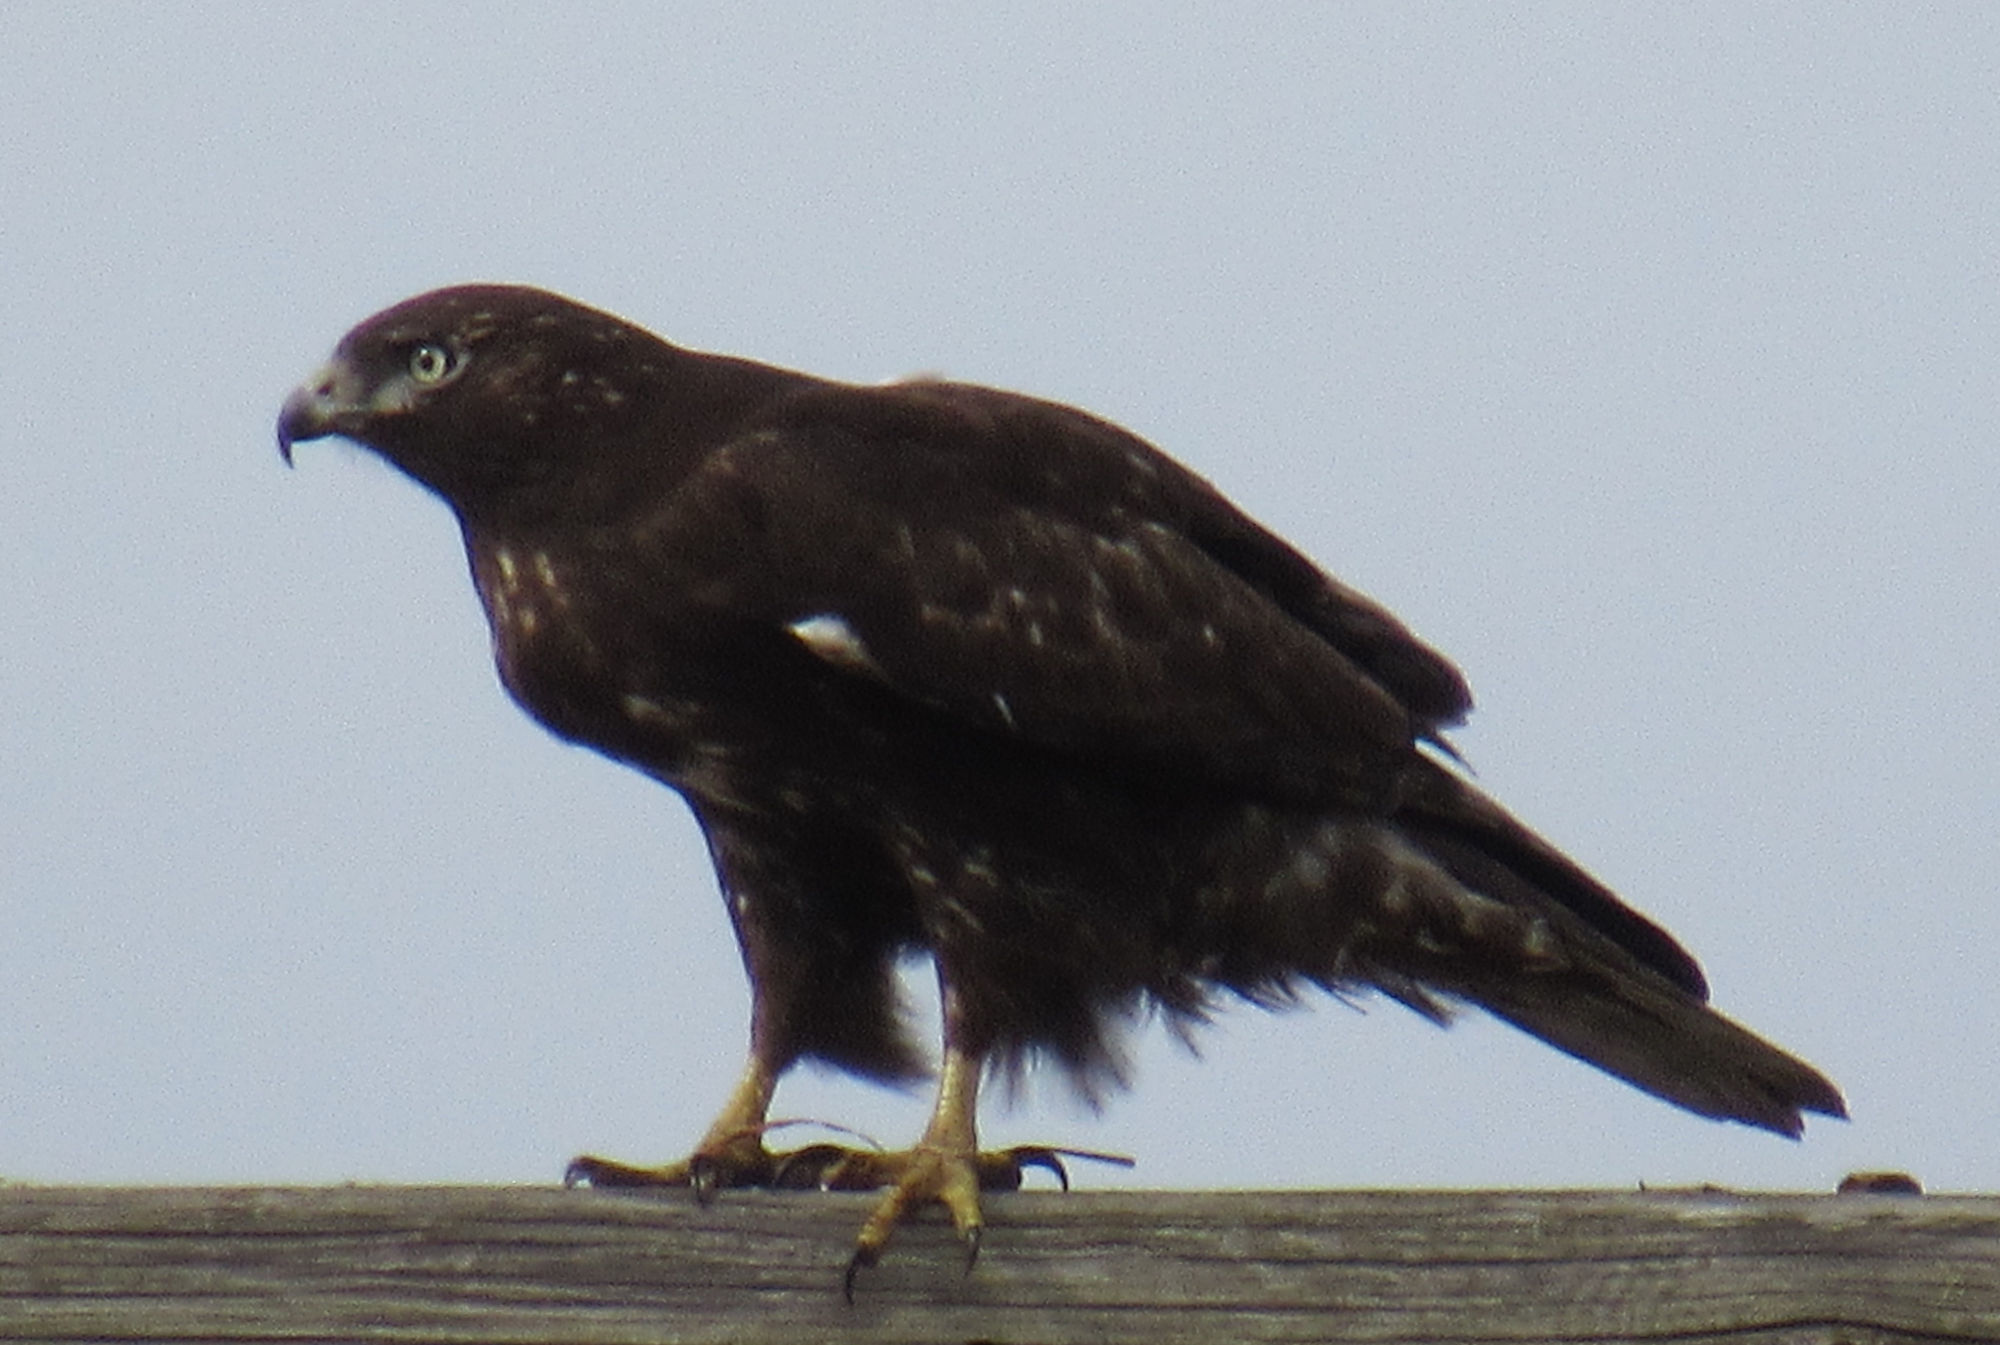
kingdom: Animalia
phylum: Chordata
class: Aves
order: Accipitriformes
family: Accipitridae
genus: Buteo
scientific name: Buteo jamaicensis
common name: Red-tailed hawk
